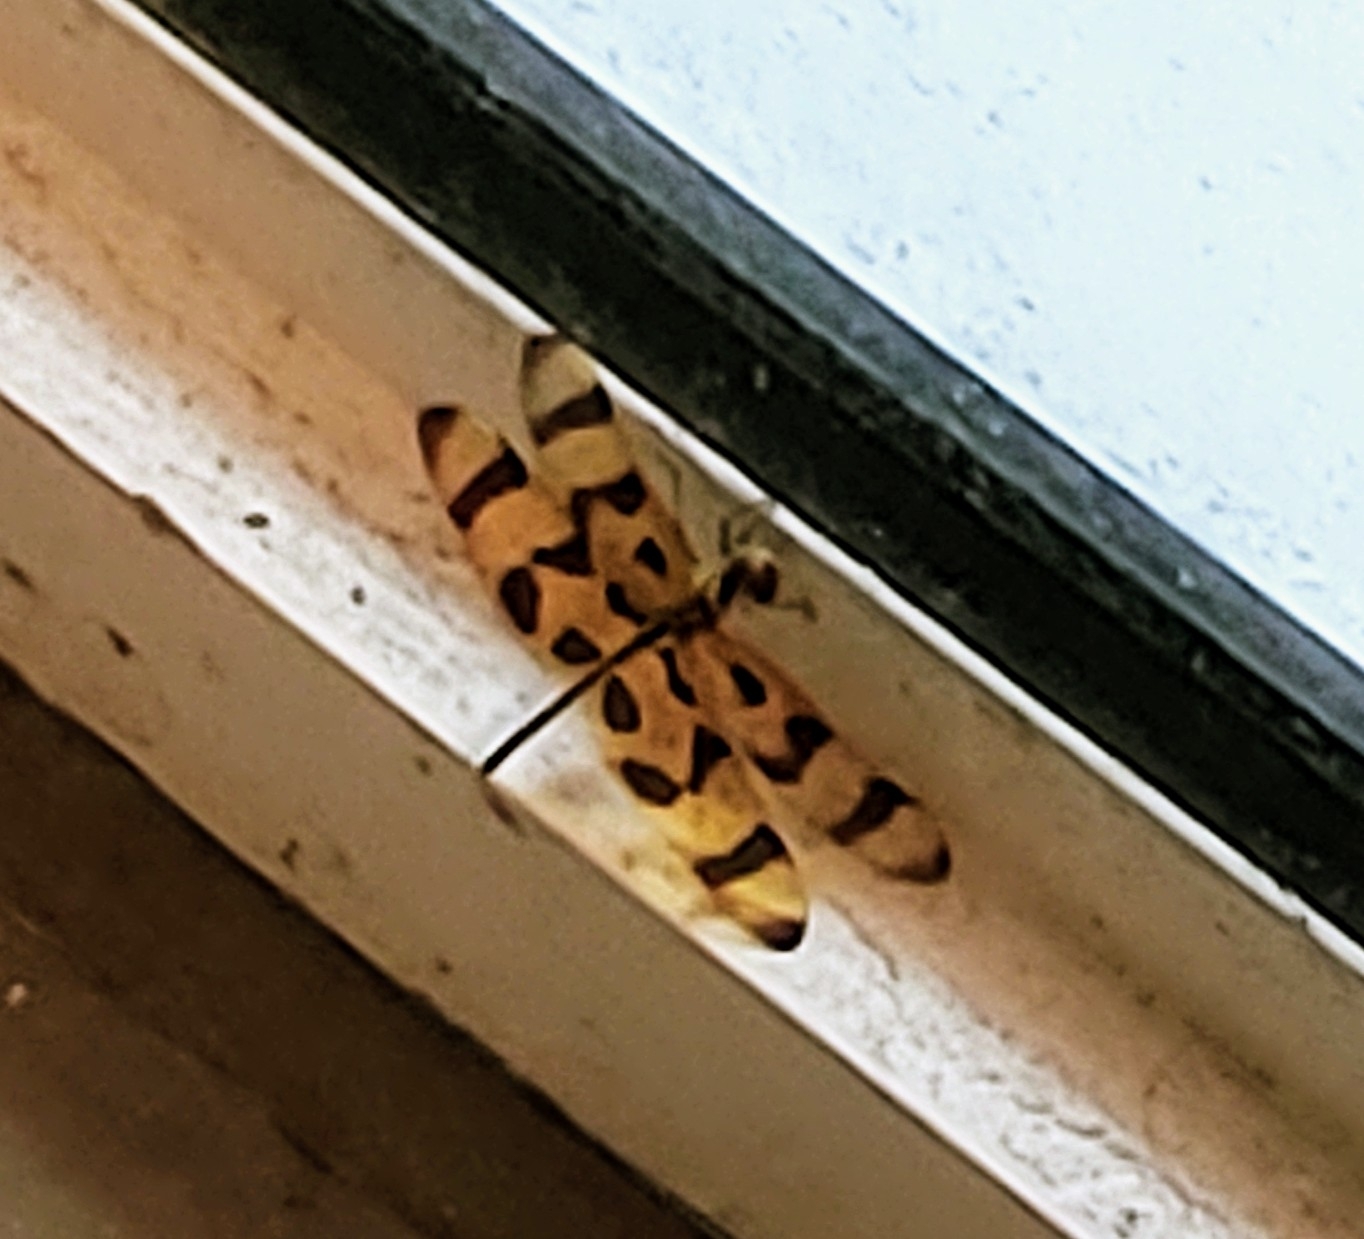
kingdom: Animalia
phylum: Arthropoda
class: Insecta
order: Odonata
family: Libellulidae
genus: Celithemis
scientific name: Celithemis eponina
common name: Halloween pennant
